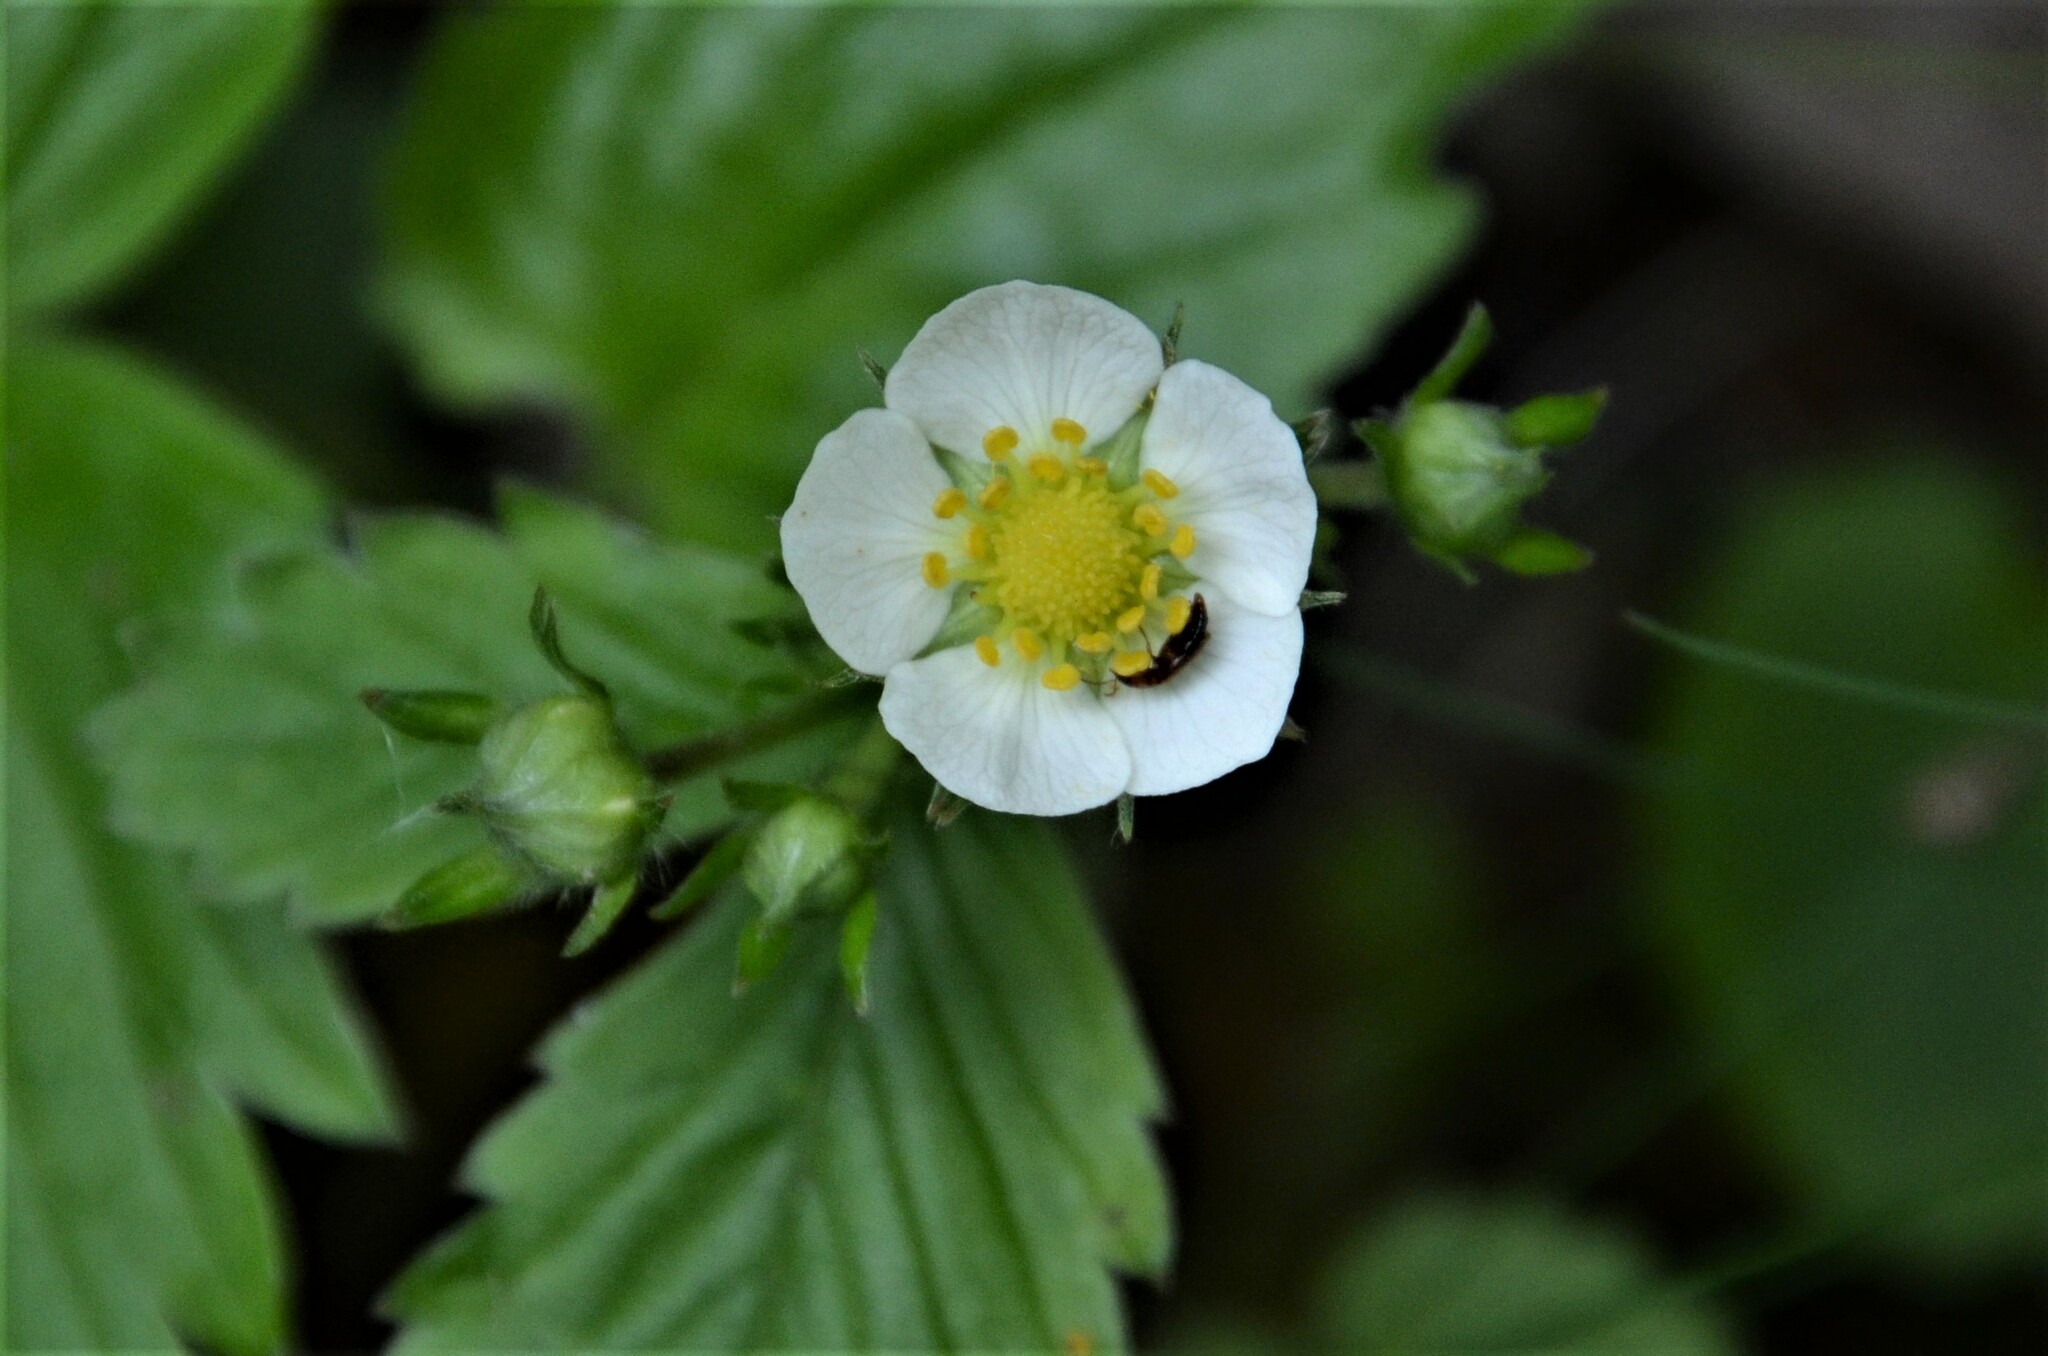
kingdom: Plantae
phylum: Tracheophyta
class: Magnoliopsida
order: Rosales
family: Rosaceae
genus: Fragaria
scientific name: Fragaria vesca
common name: Wild strawberry
